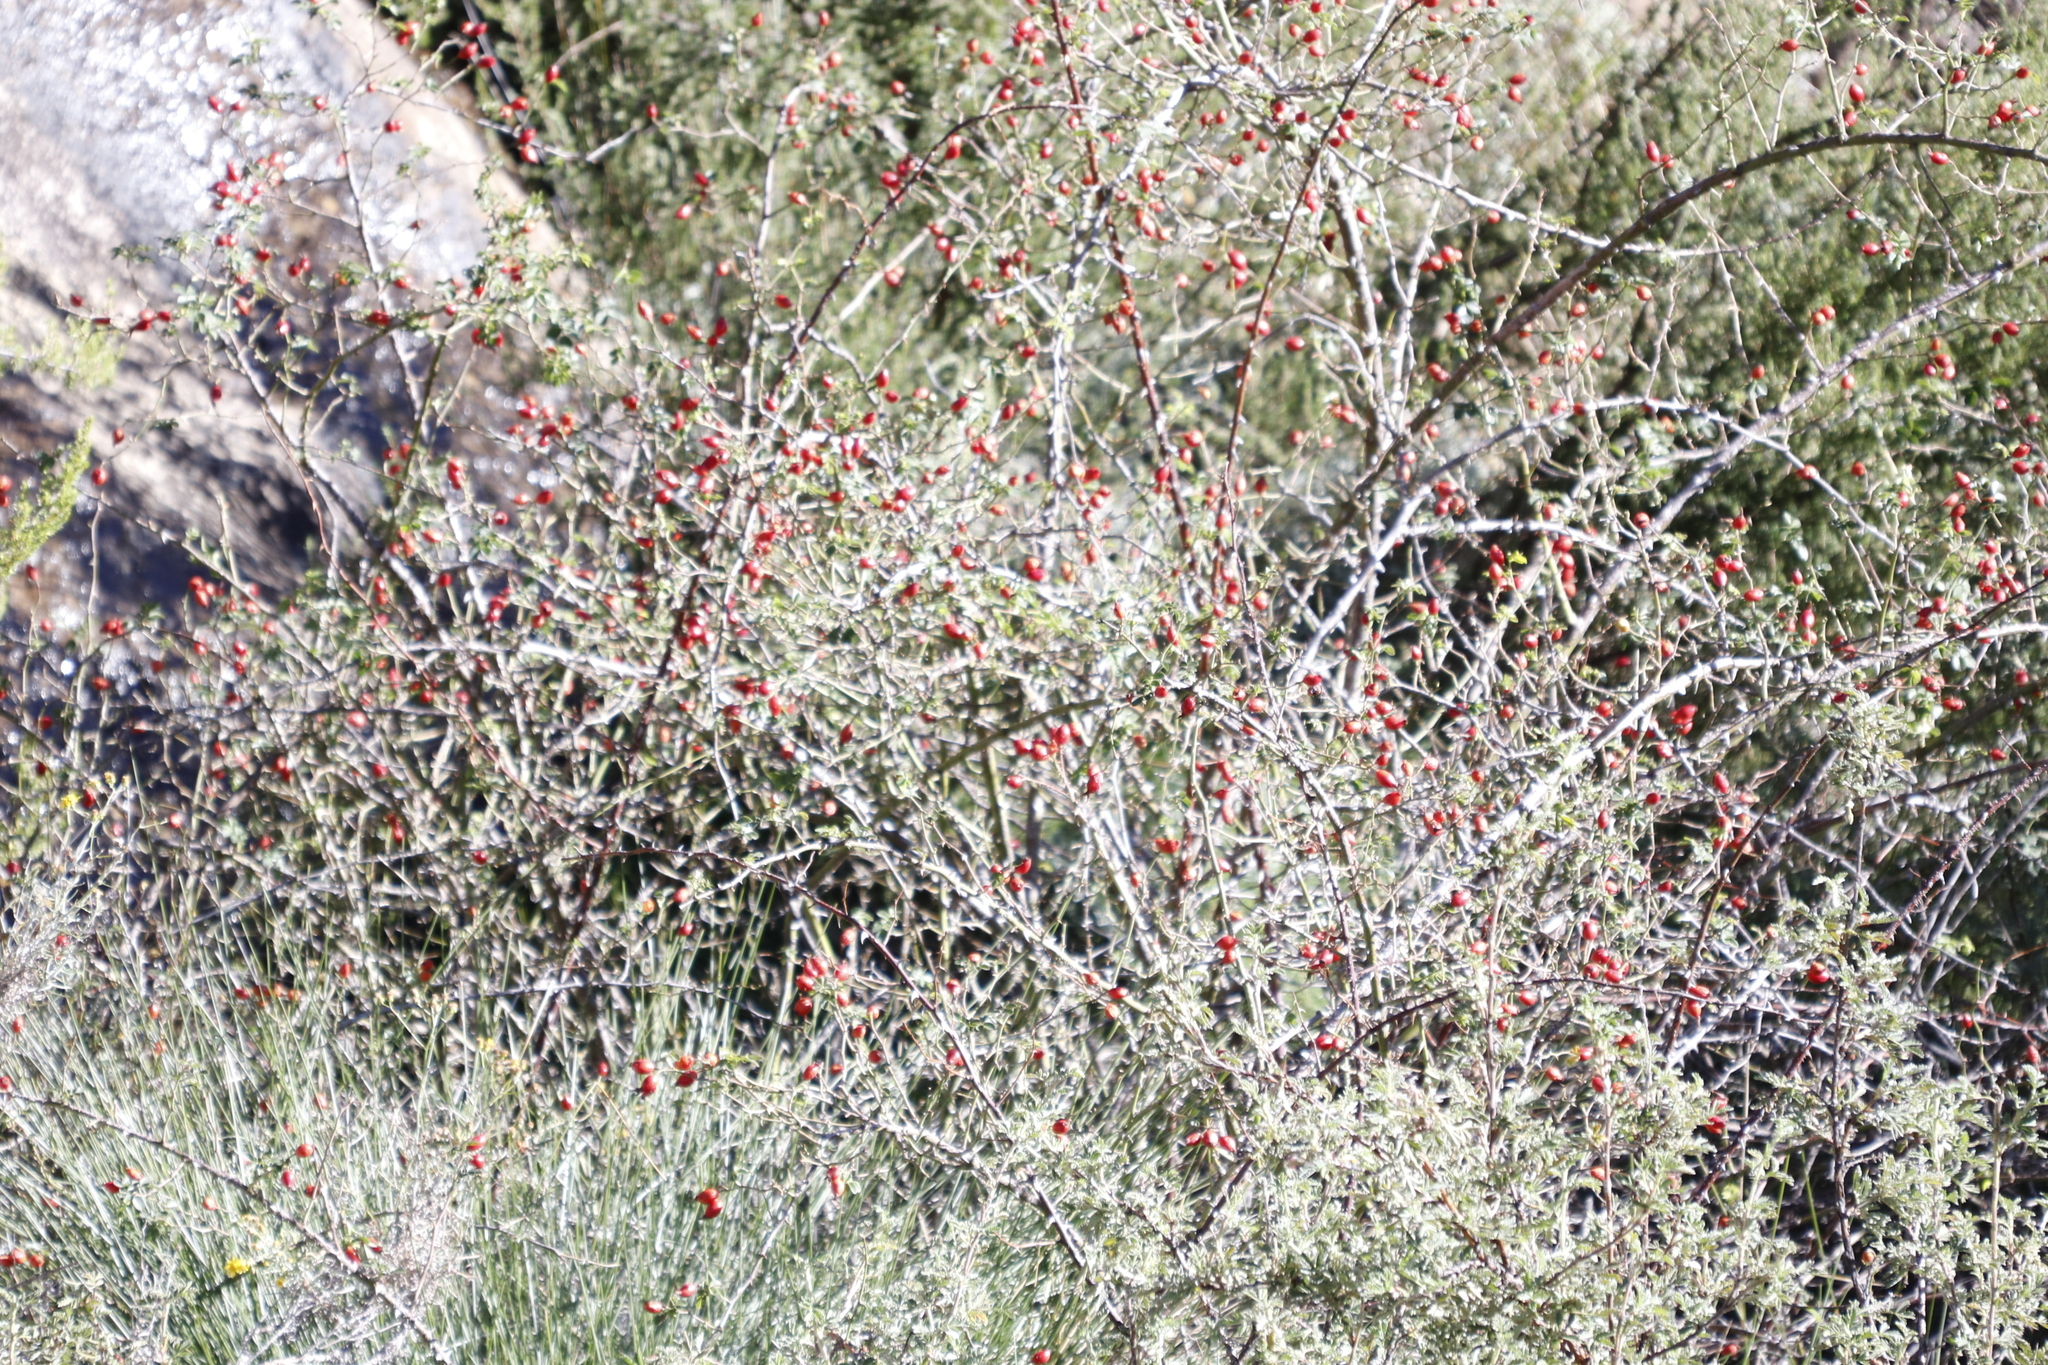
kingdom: Plantae
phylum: Tracheophyta
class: Magnoliopsida
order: Rosales
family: Rosaceae
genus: Rosa
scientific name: Rosa rubiginosa
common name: Sweet-briar
